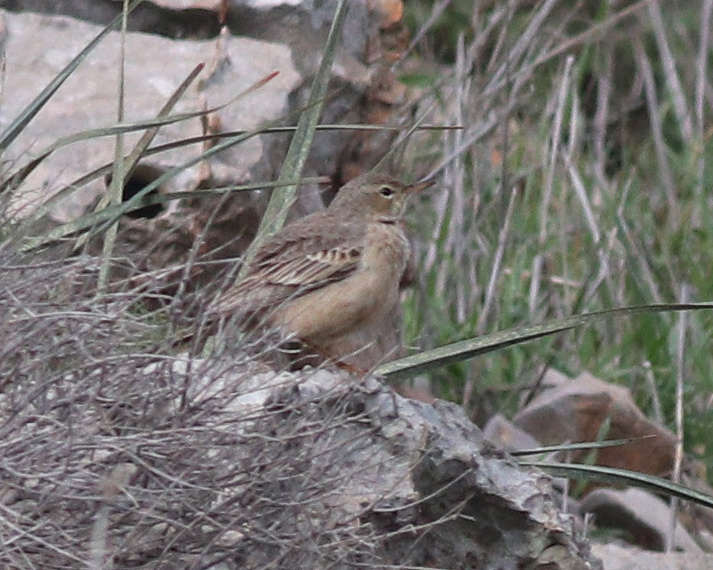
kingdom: Animalia
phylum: Chordata
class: Aves
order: Passeriformes
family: Motacillidae
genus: Anthus
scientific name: Anthus similis
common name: Long-billed pipit
